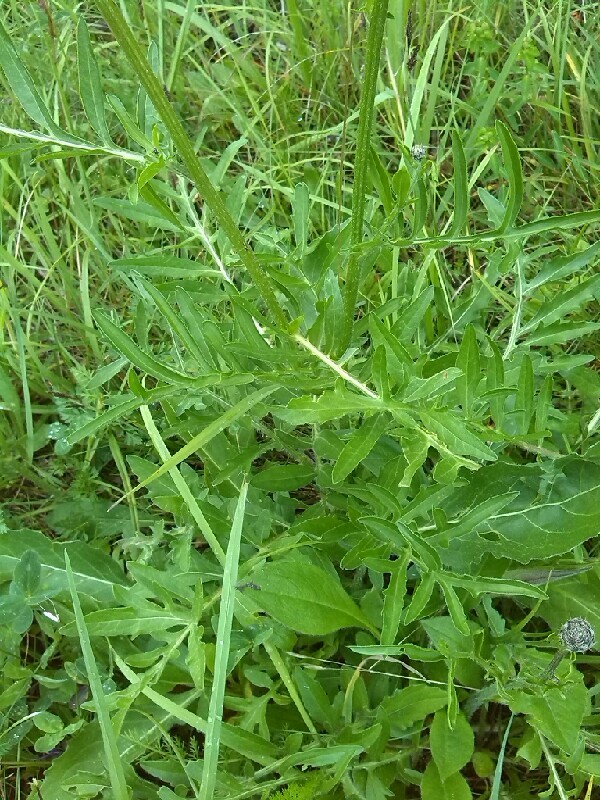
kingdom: Plantae
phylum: Tracheophyta
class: Magnoliopsida
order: Asterales
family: Asteraceae
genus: Centaurea
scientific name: Centaurea scabiosa
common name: Greater knapweed
